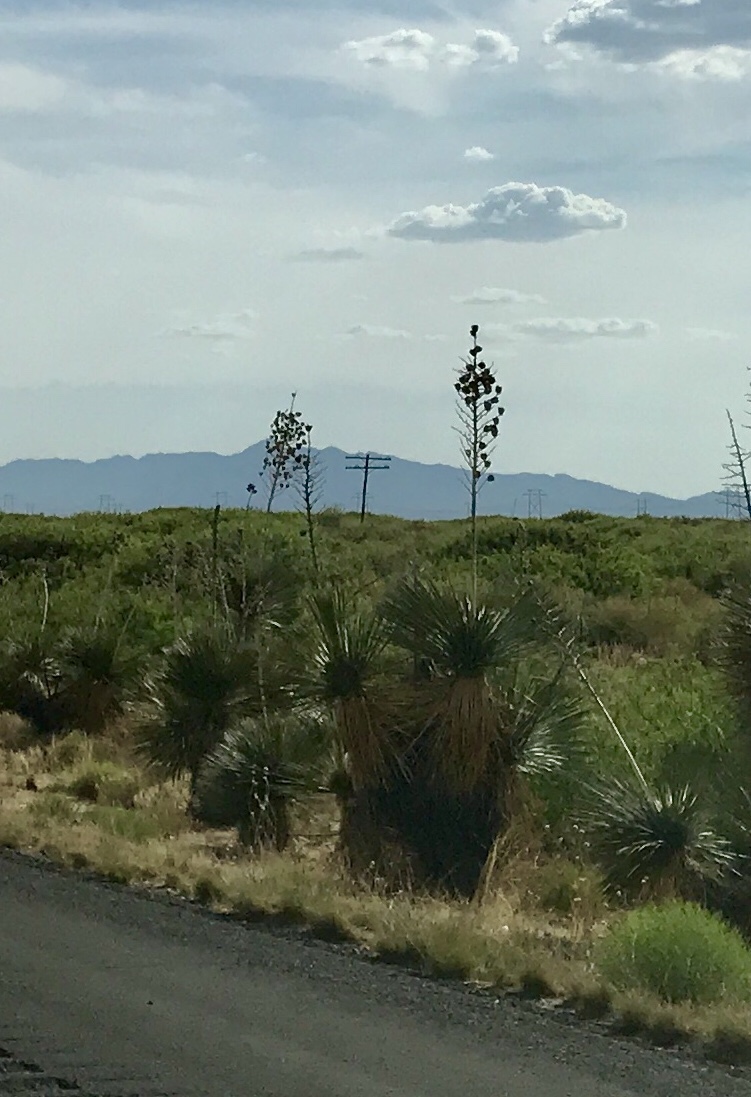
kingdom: Plantae
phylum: Tracheophyta
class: Liliopsida
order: Asparagales
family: Asparagaceae
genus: Yucca
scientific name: Yucca elata
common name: Palmella
